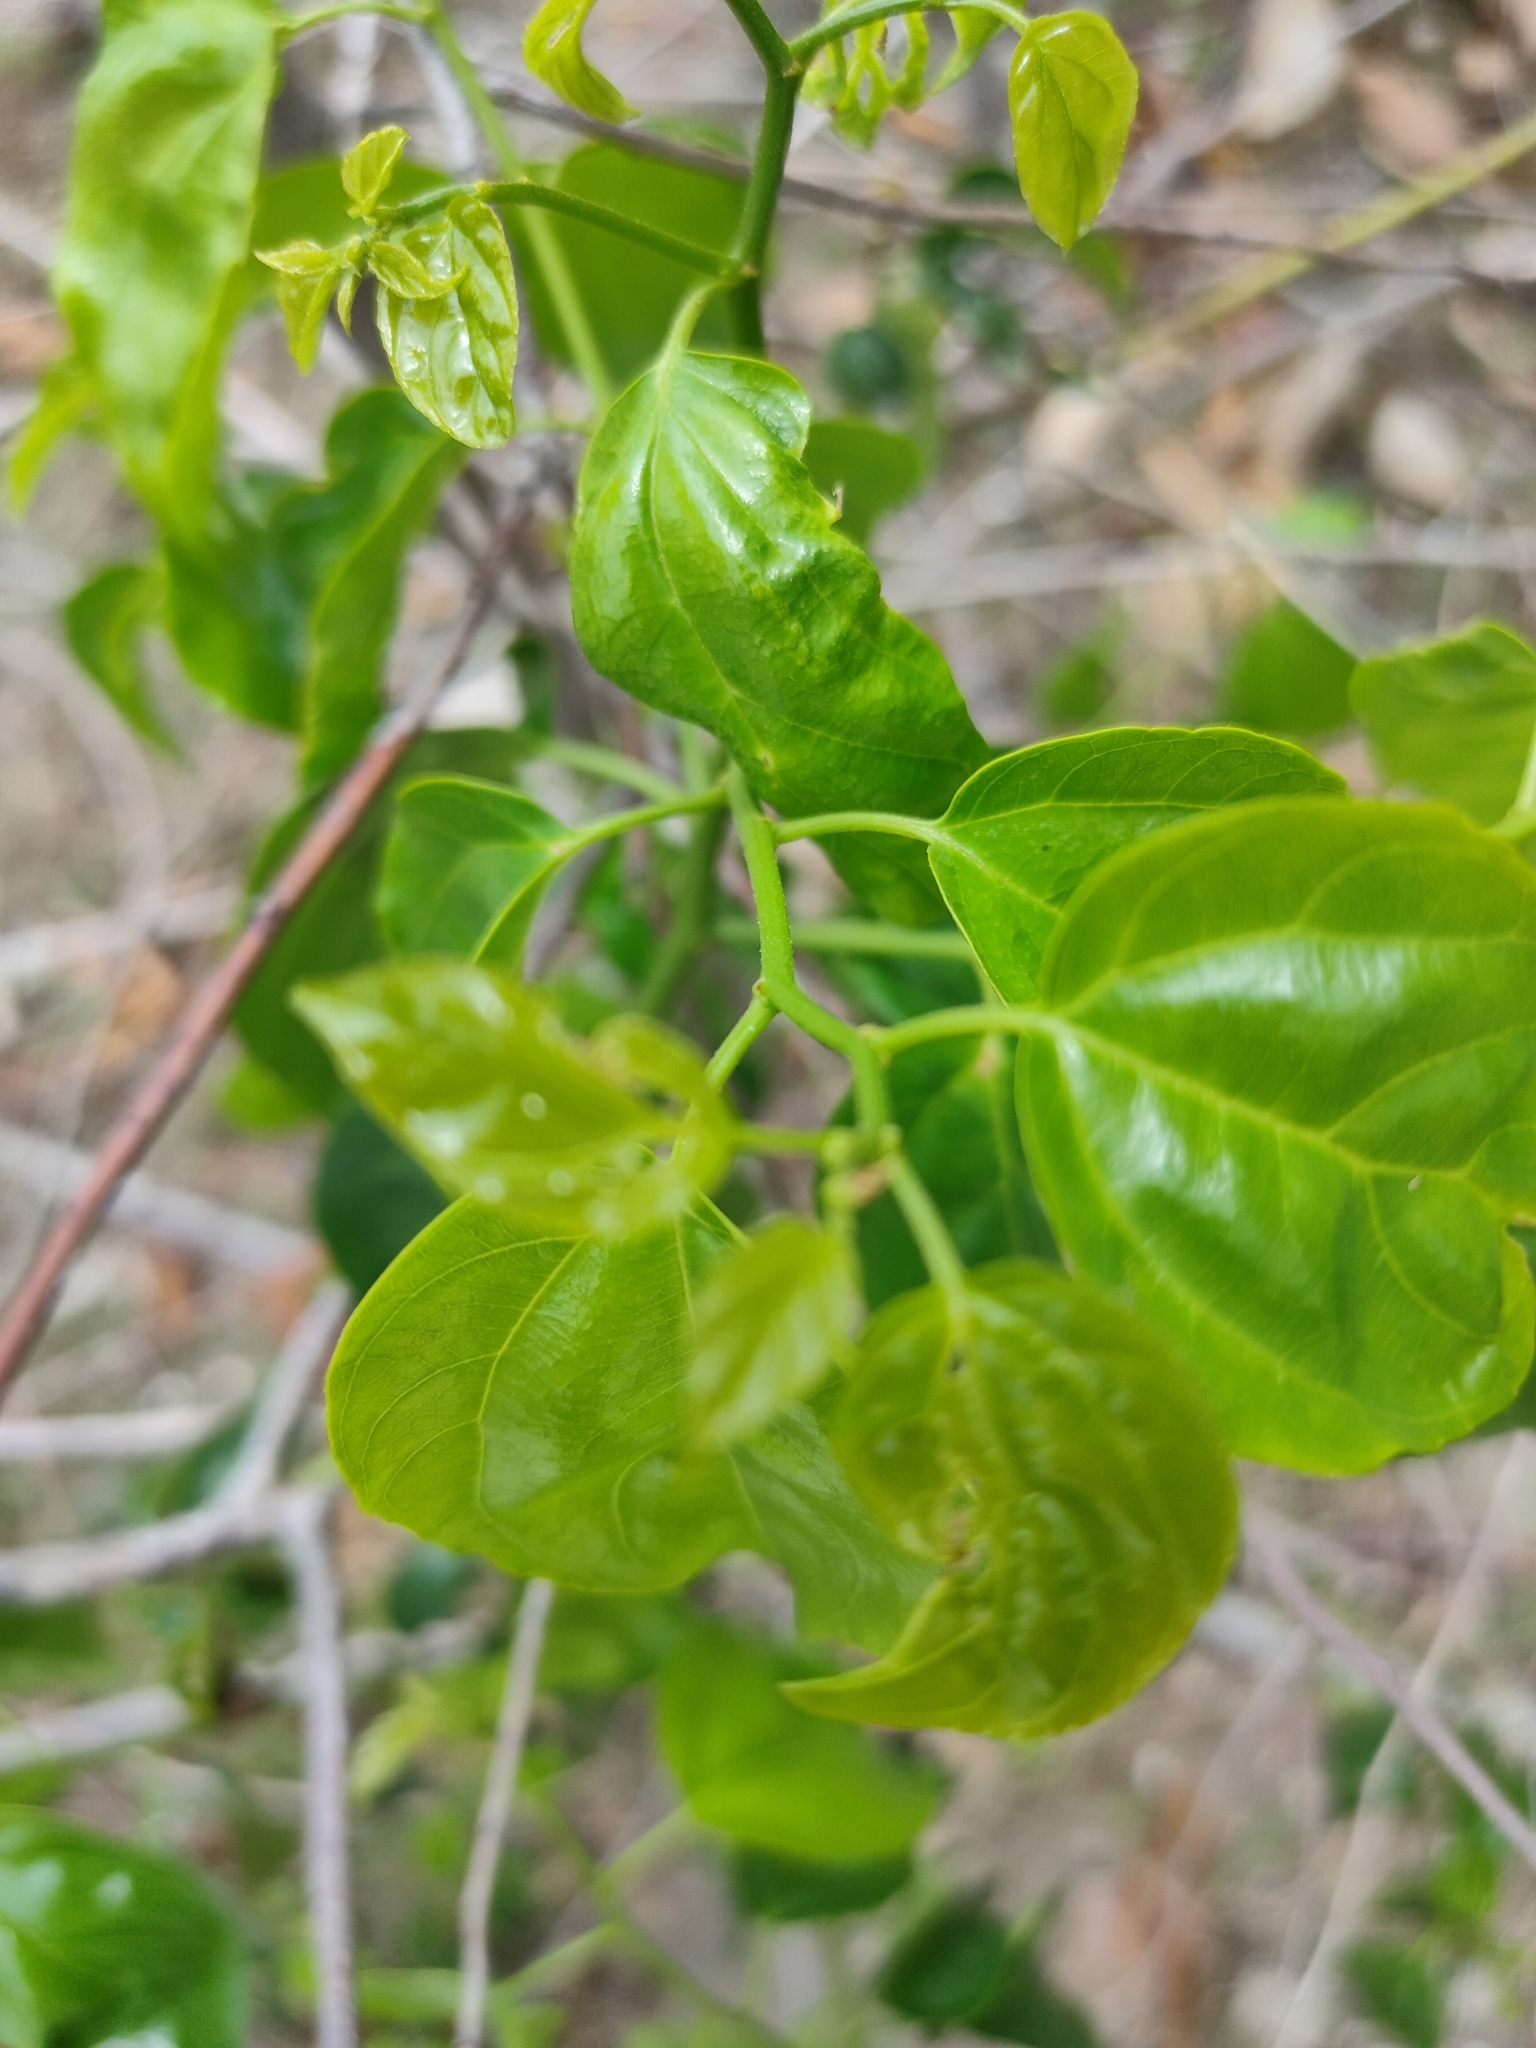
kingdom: Plantae
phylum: Tracheophyta
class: Magnoliopsida
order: Rosales
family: Rhamnaceae
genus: Colubrina
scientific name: Colubrina asiatica
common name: Asian nakedwood
